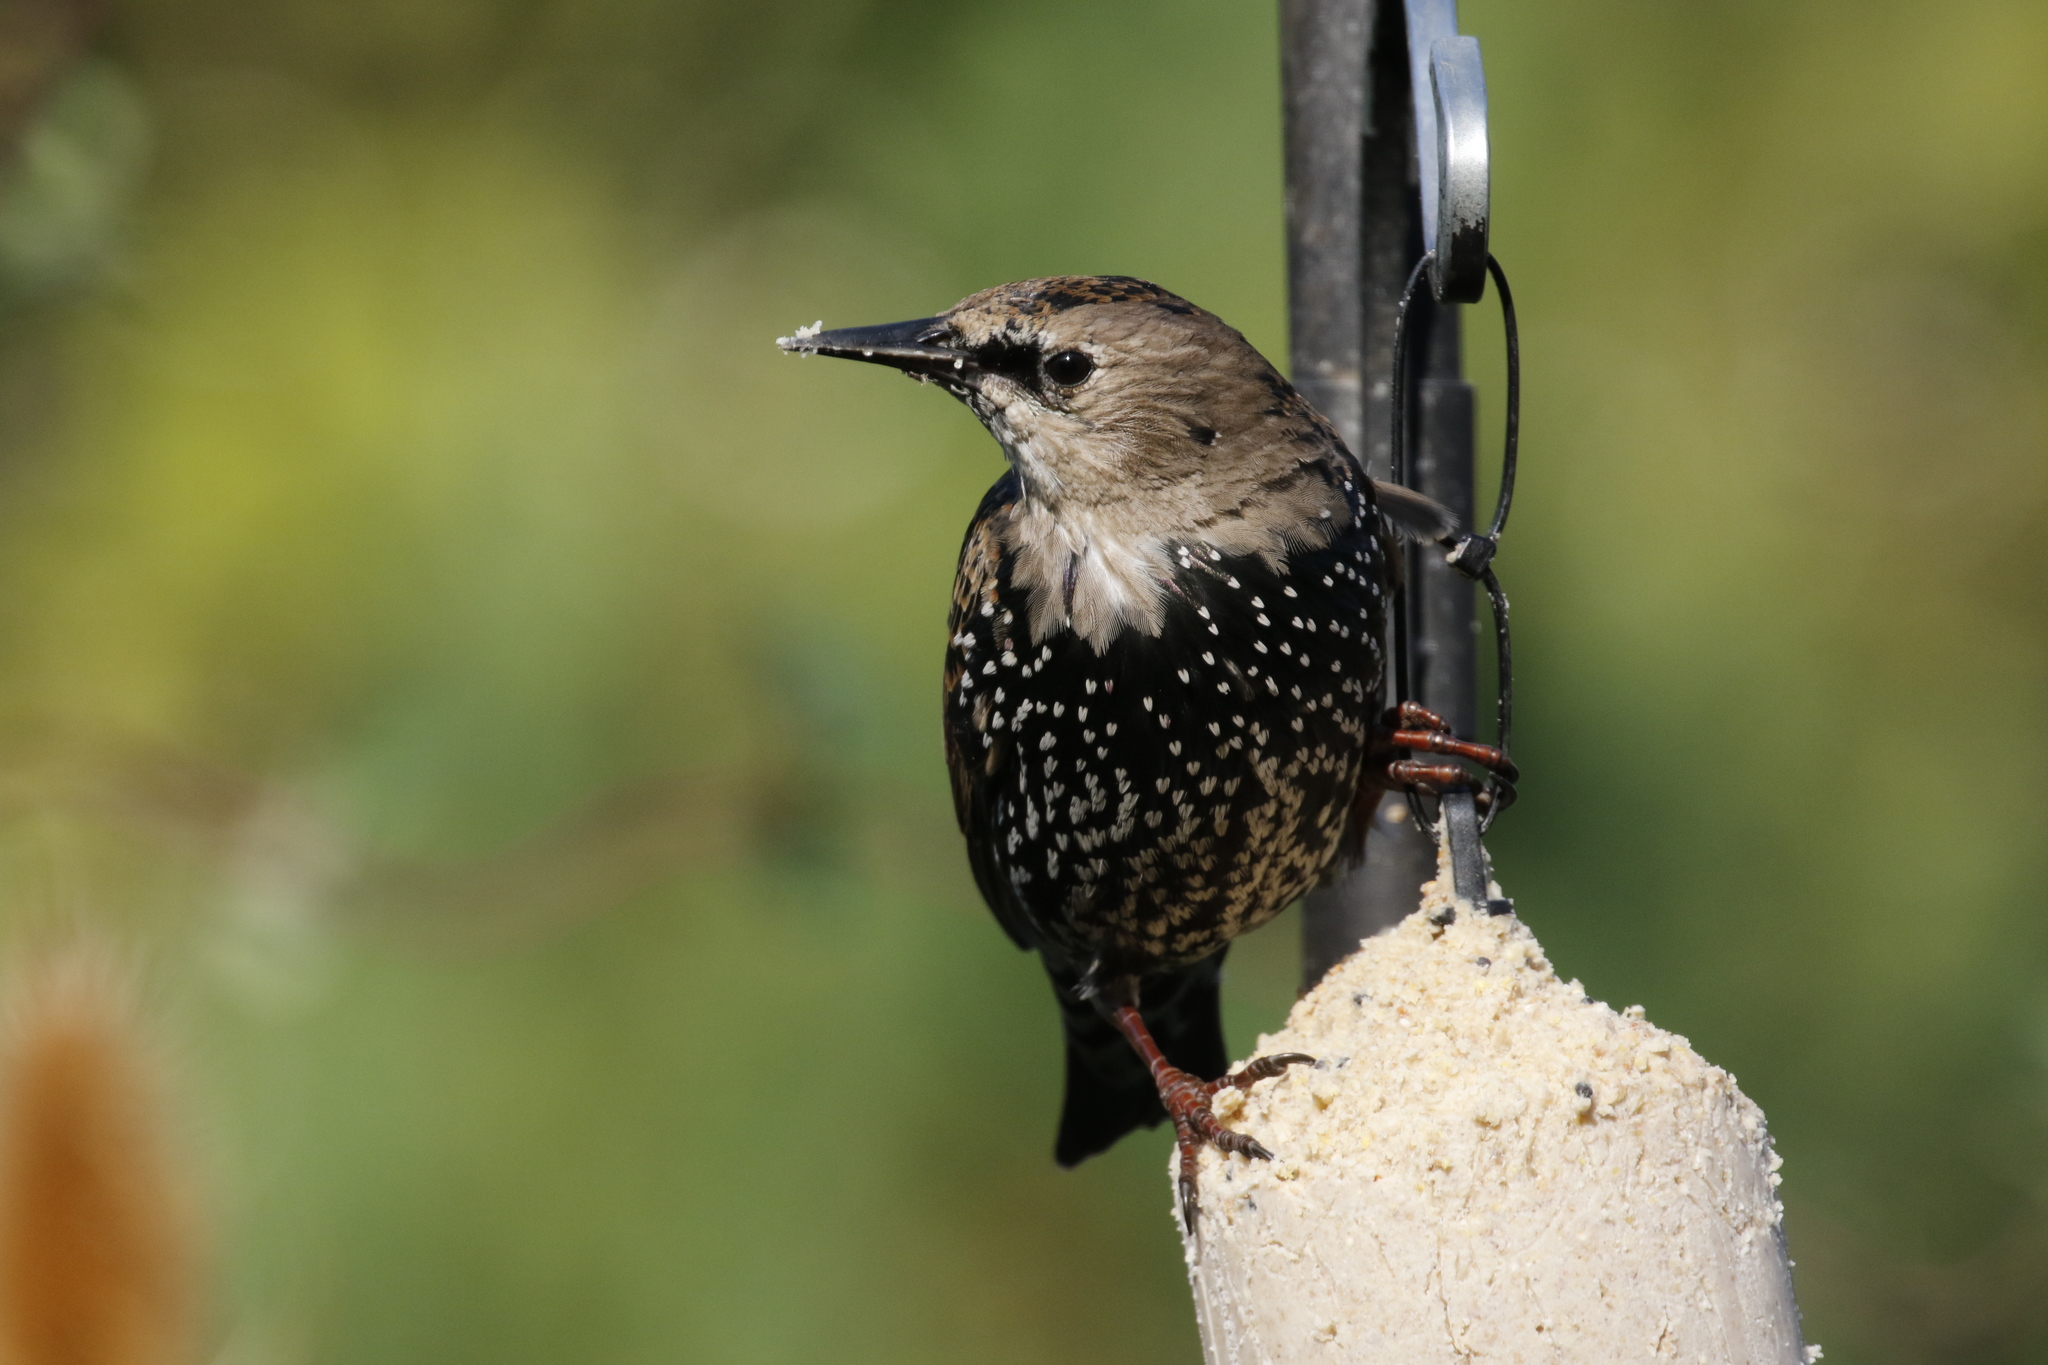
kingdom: Animalia
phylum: Chordata
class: Aves
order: Passeriformes
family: Sturnidae
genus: Sturnus
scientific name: Sturnus vulgaris
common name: Common starling
